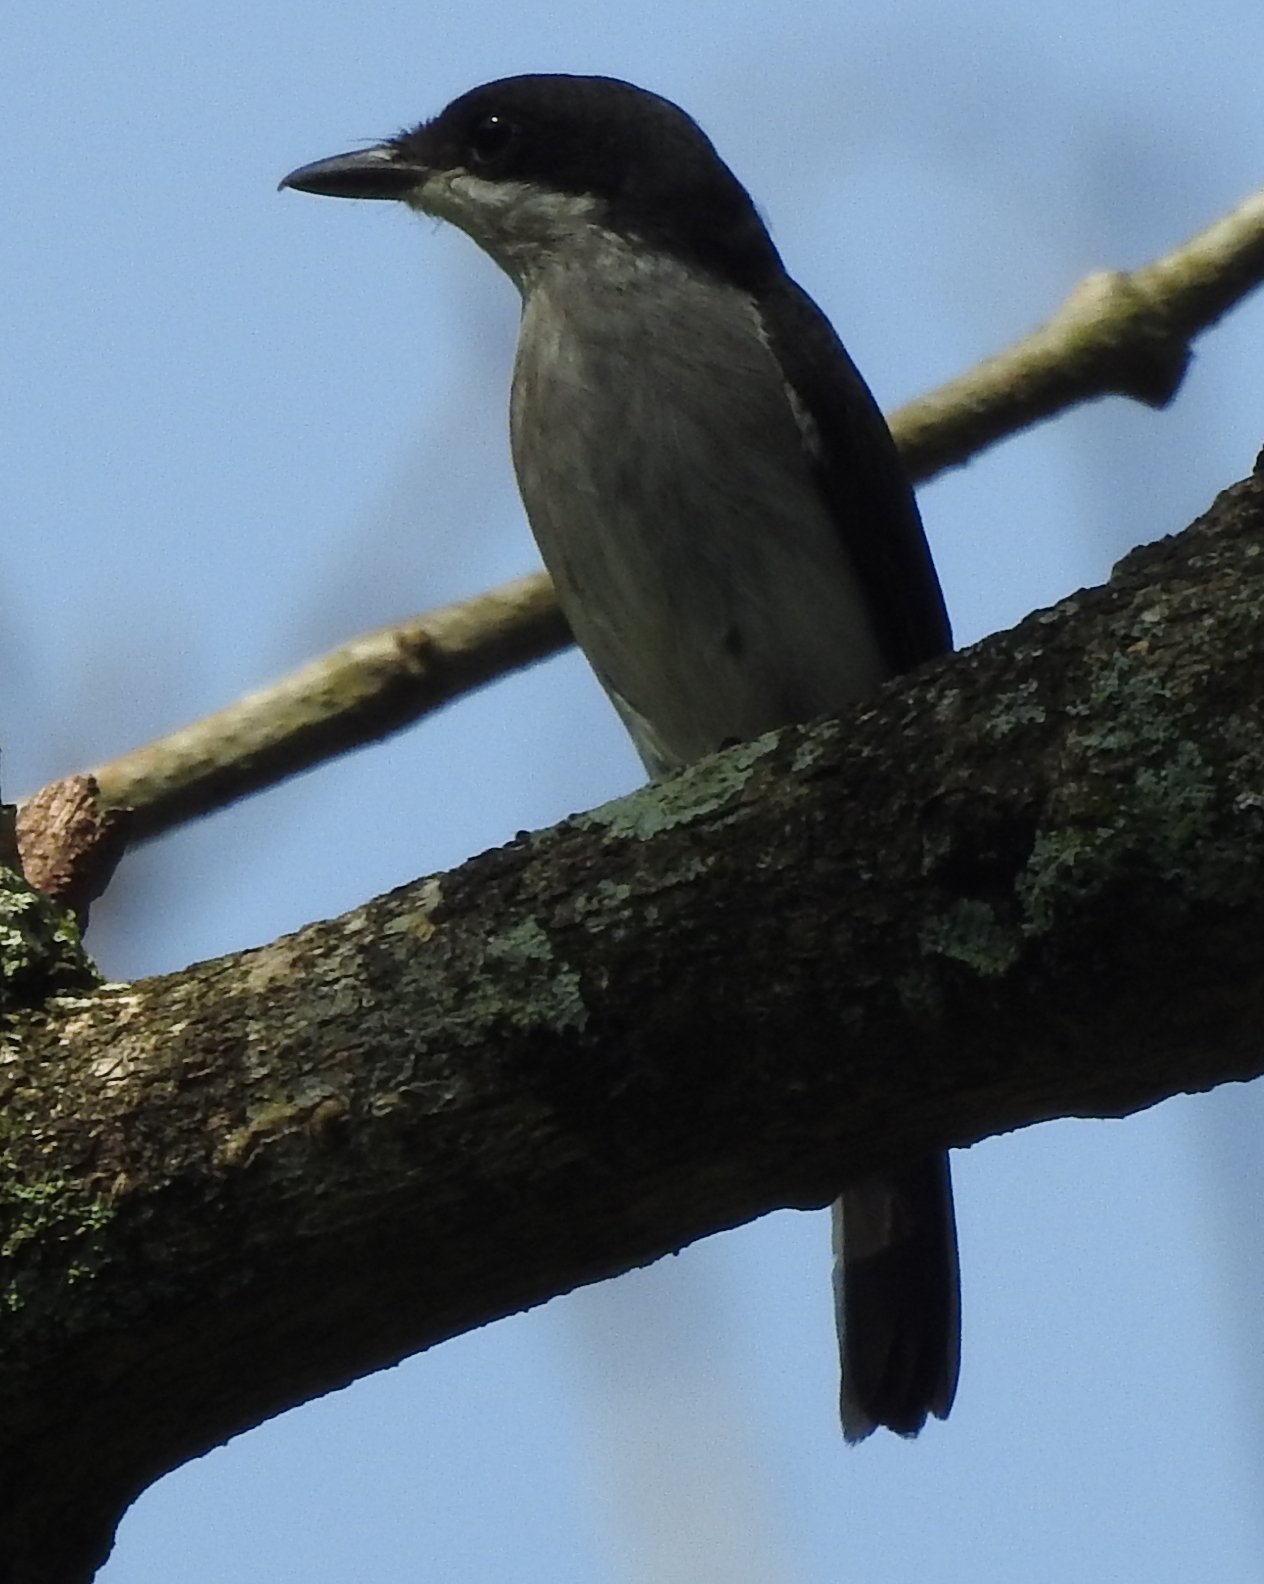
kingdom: Animalia
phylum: Chordata
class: Aves
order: Passeriformes
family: Tephrodornithidae
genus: Hemipus
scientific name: Hemipus hirundinaceus
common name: Black-winged flycatcher-shrike
